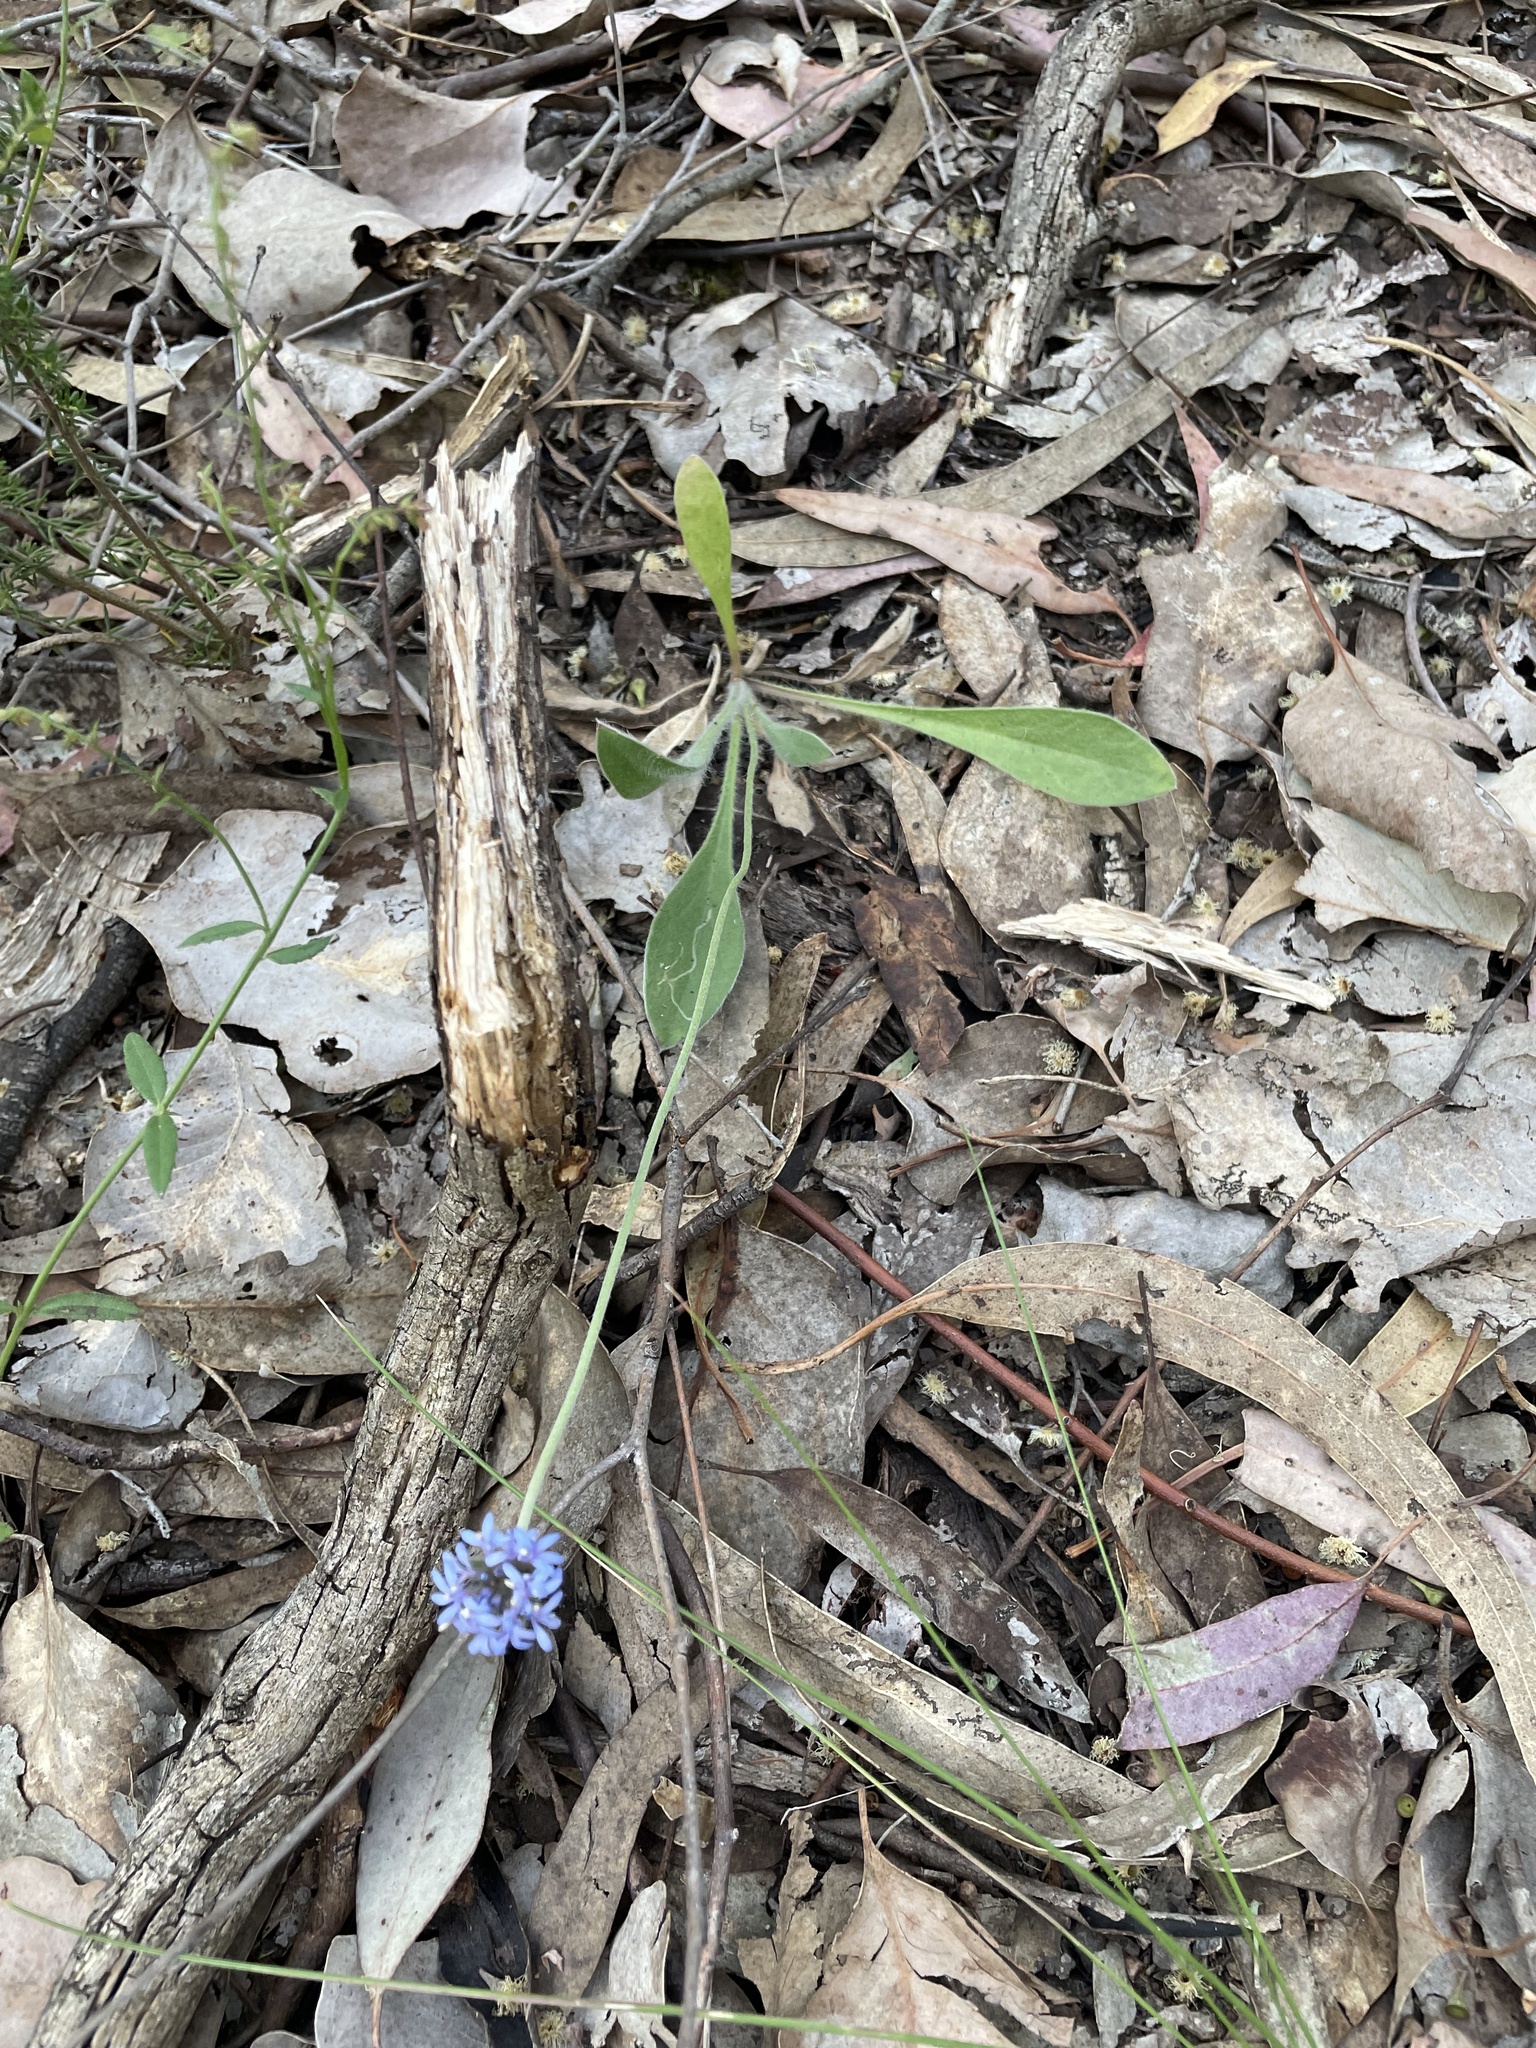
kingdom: Plantae
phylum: Tracheophyta
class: Magnoliopsida
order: Asterales
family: Goodeniaceae
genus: Brunonia
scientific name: Brunonia australis
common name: Blue pincushion
